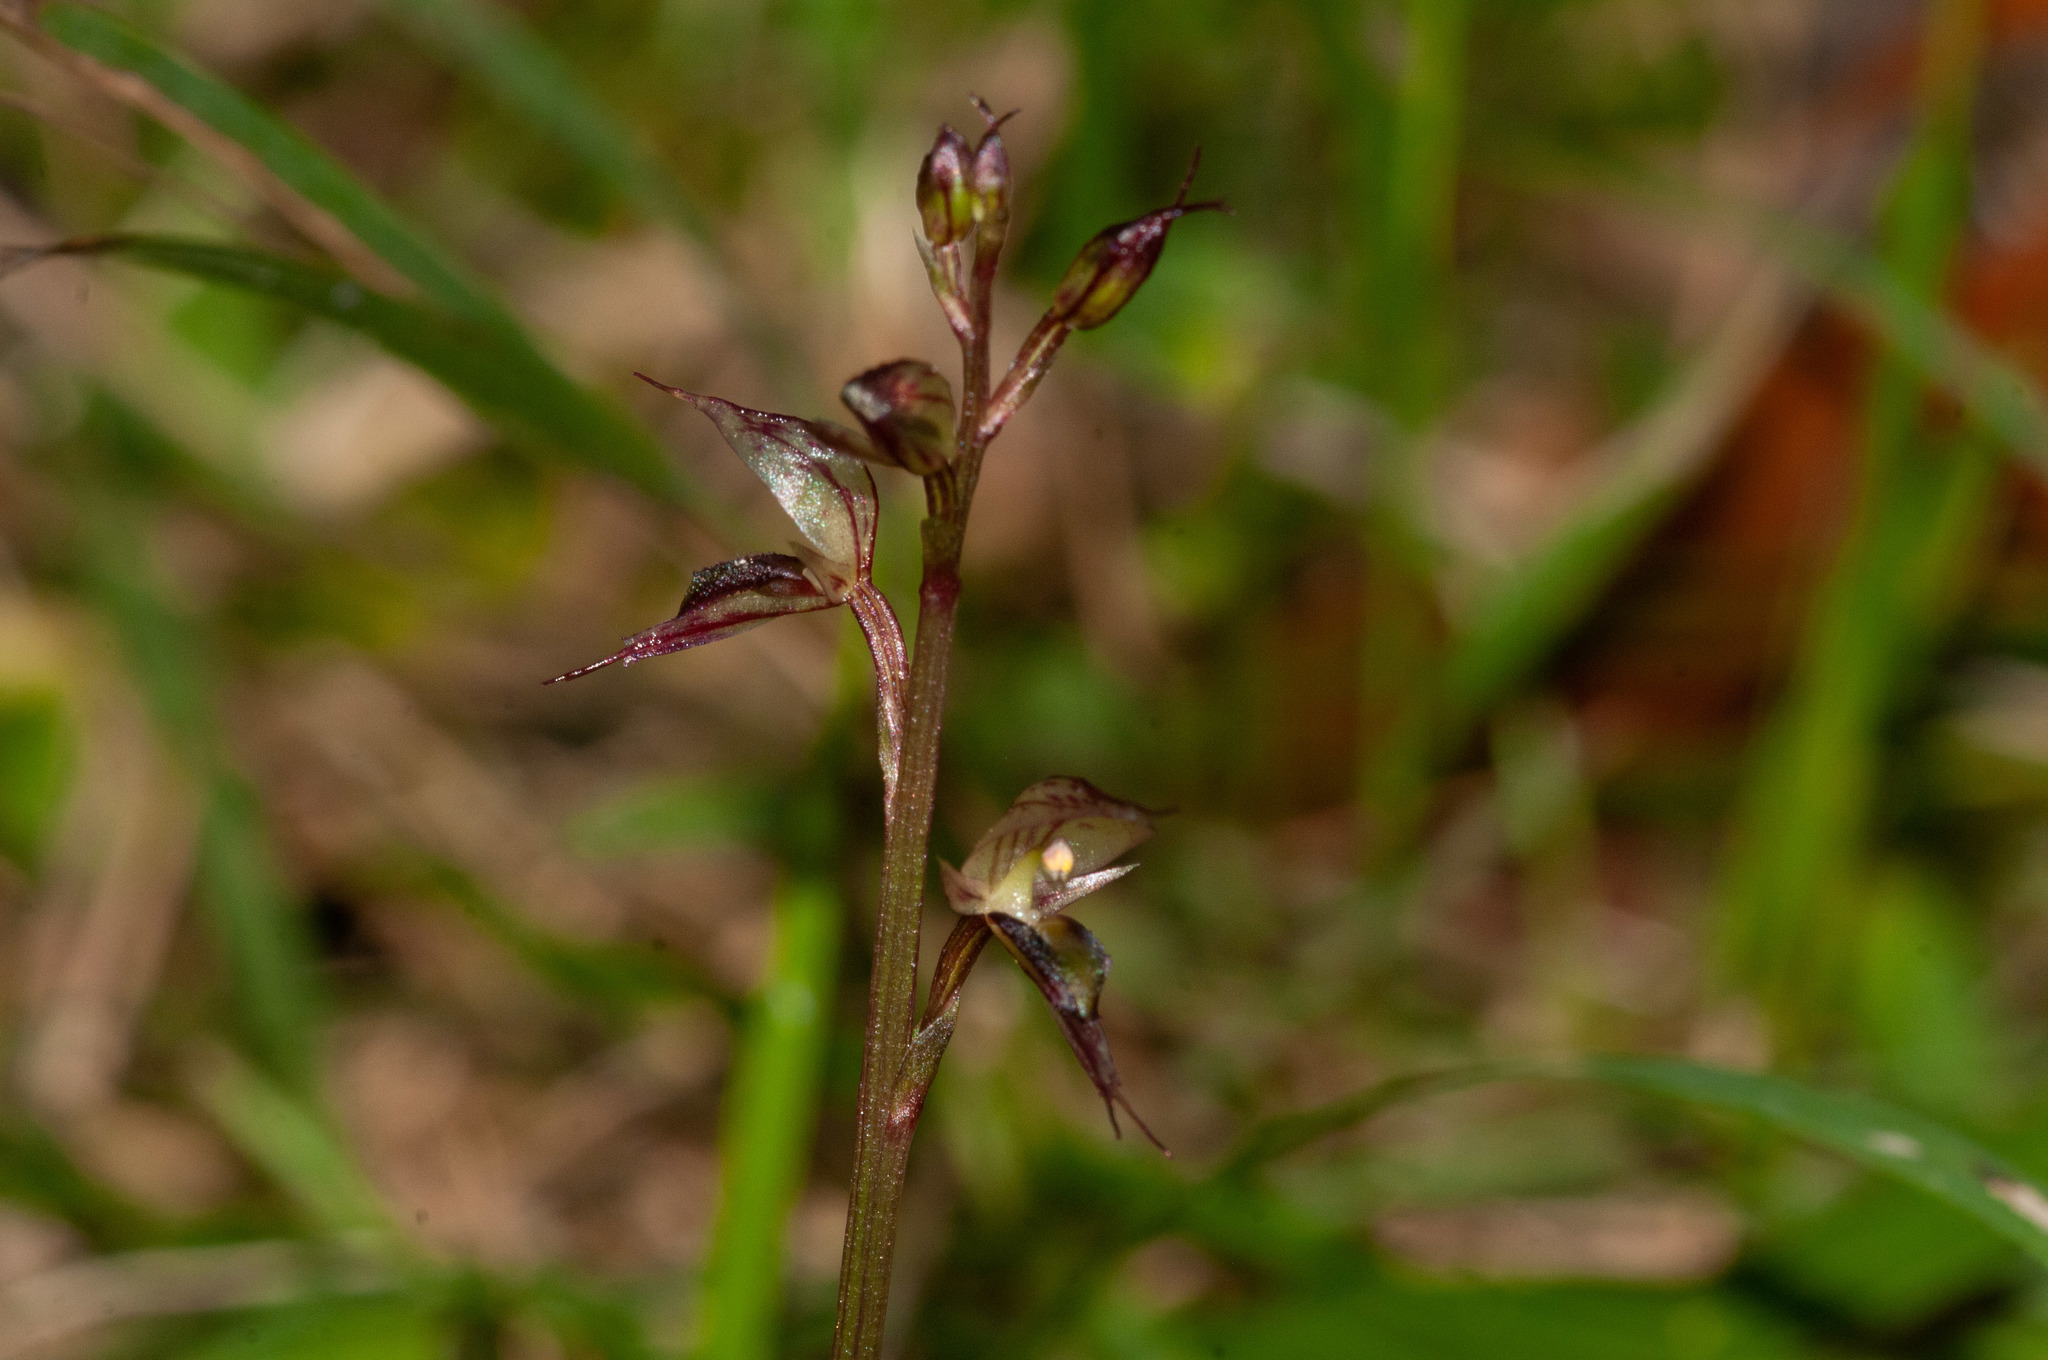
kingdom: Plantae
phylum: Tracheophyta
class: Liliopsida
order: Asparagales
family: Orchidaceae
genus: Acianthus
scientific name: Acianthus fornicatus
